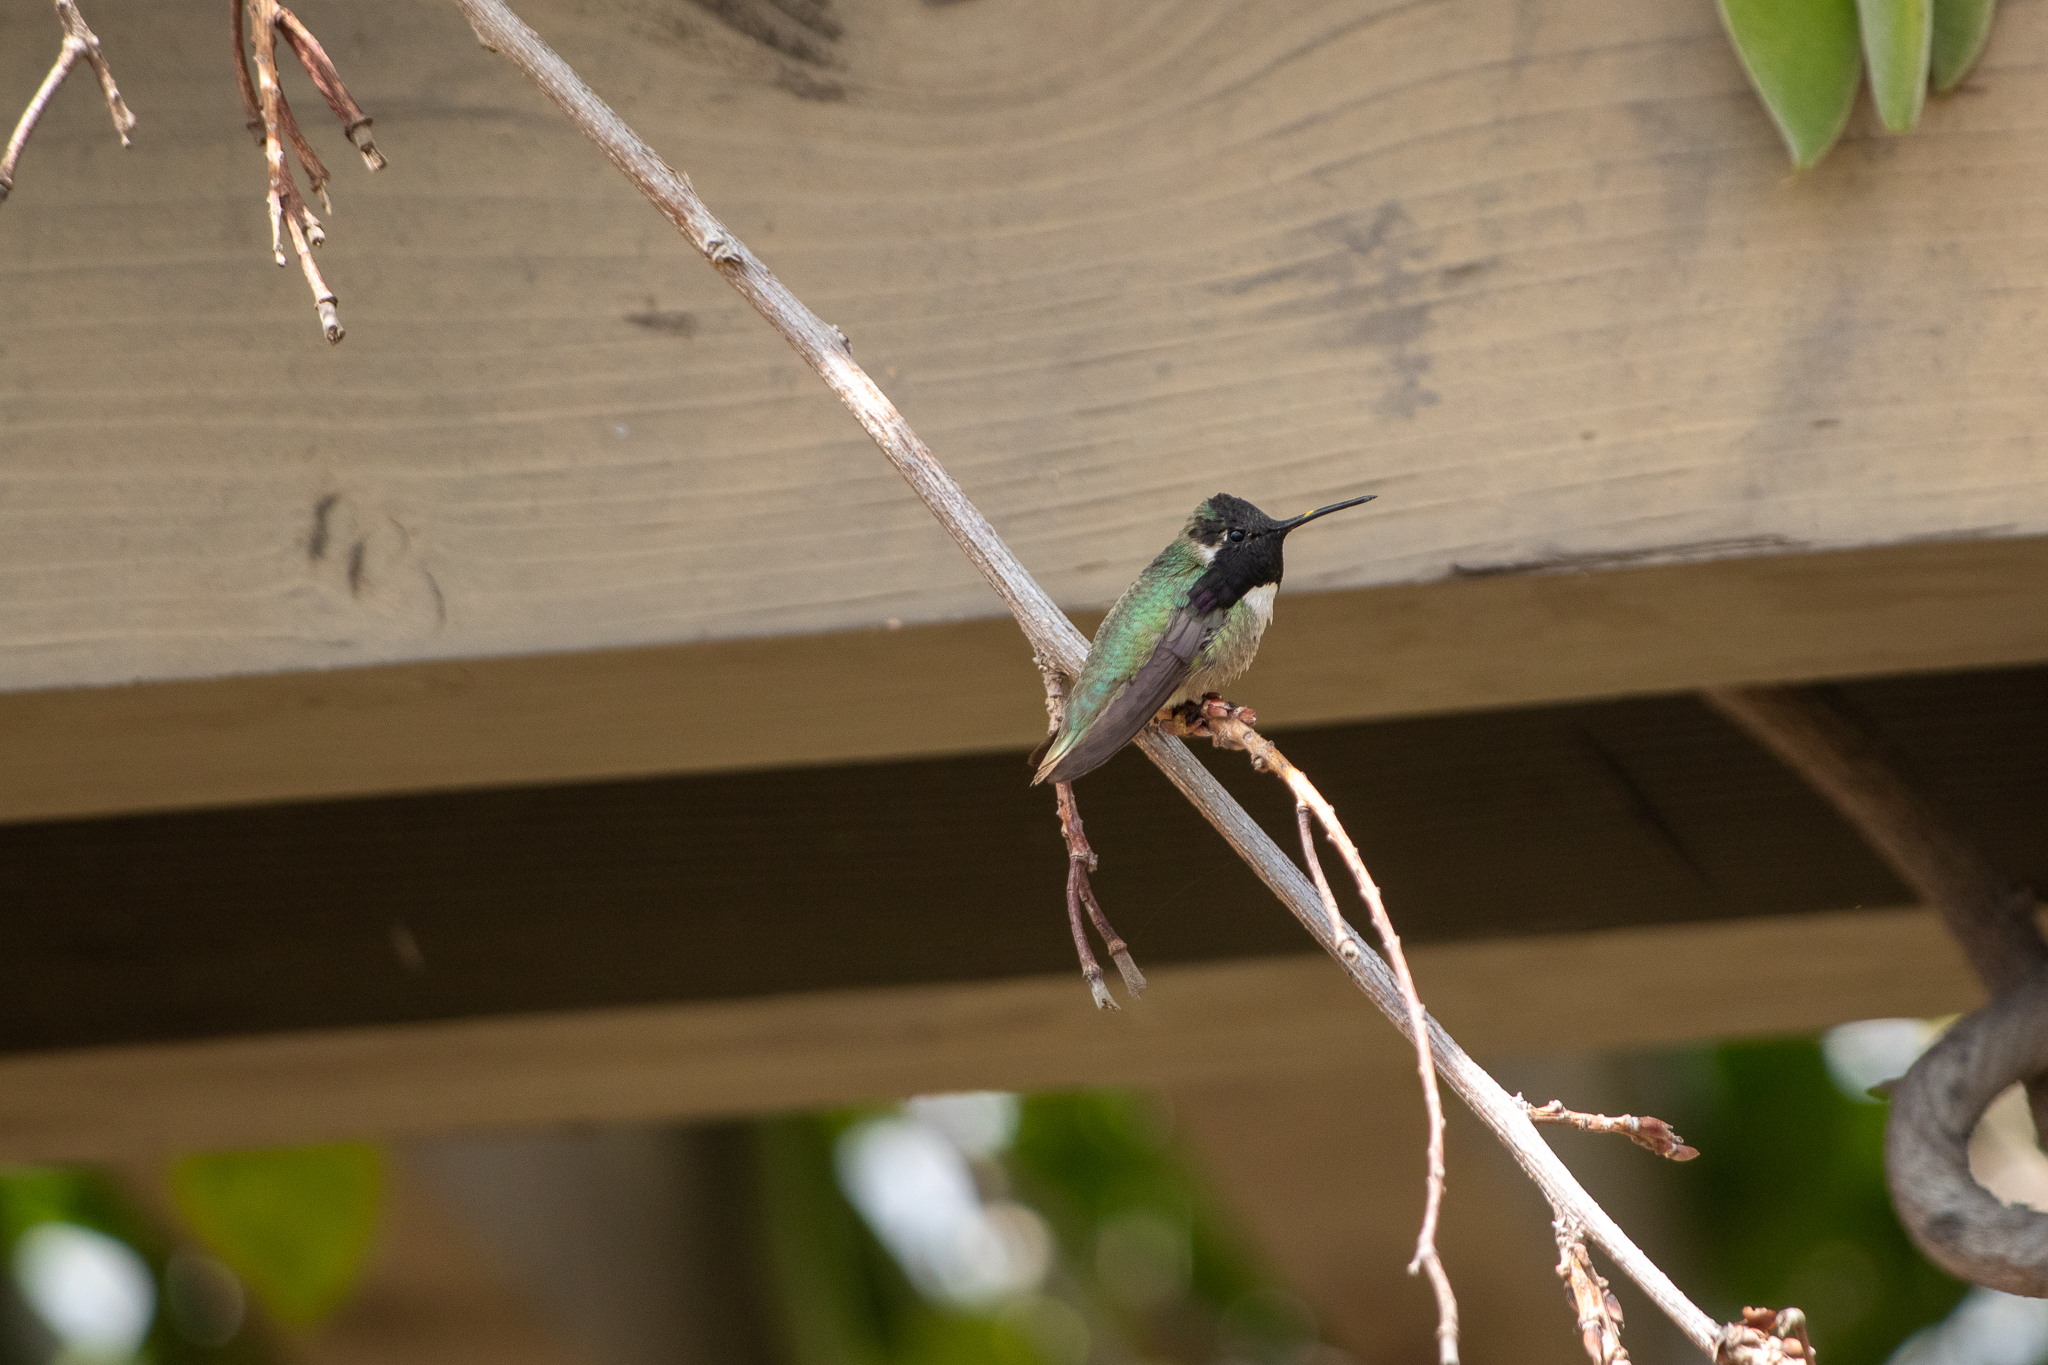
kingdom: Animalia
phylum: Chordata
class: Aves
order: Apodiformes
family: Trochilidae
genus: Calypte
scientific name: Calypte costae
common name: Costa's hummingbird
